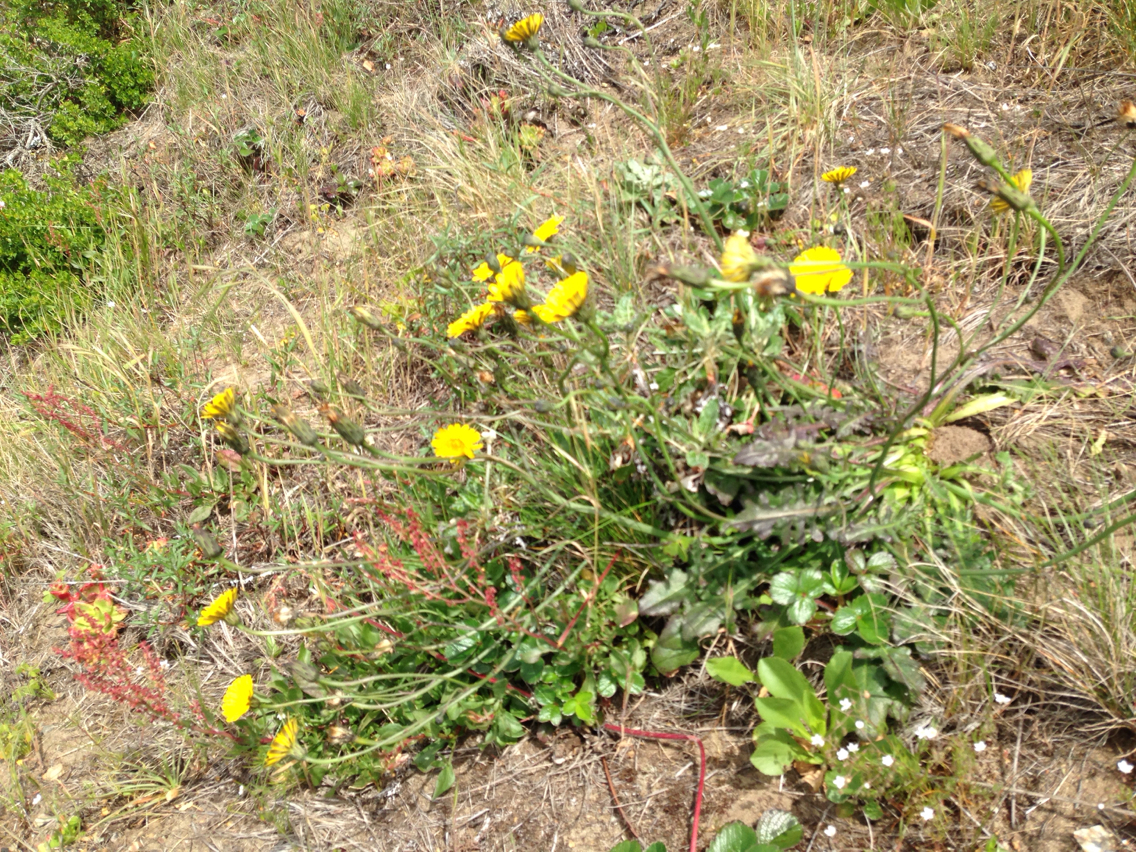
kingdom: Plantae
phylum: Tracheophyta
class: Magnoliopsida
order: Asterales
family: Asteraceae
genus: Hypochaeris
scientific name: Hypochaeris radicata
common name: Flatweed
